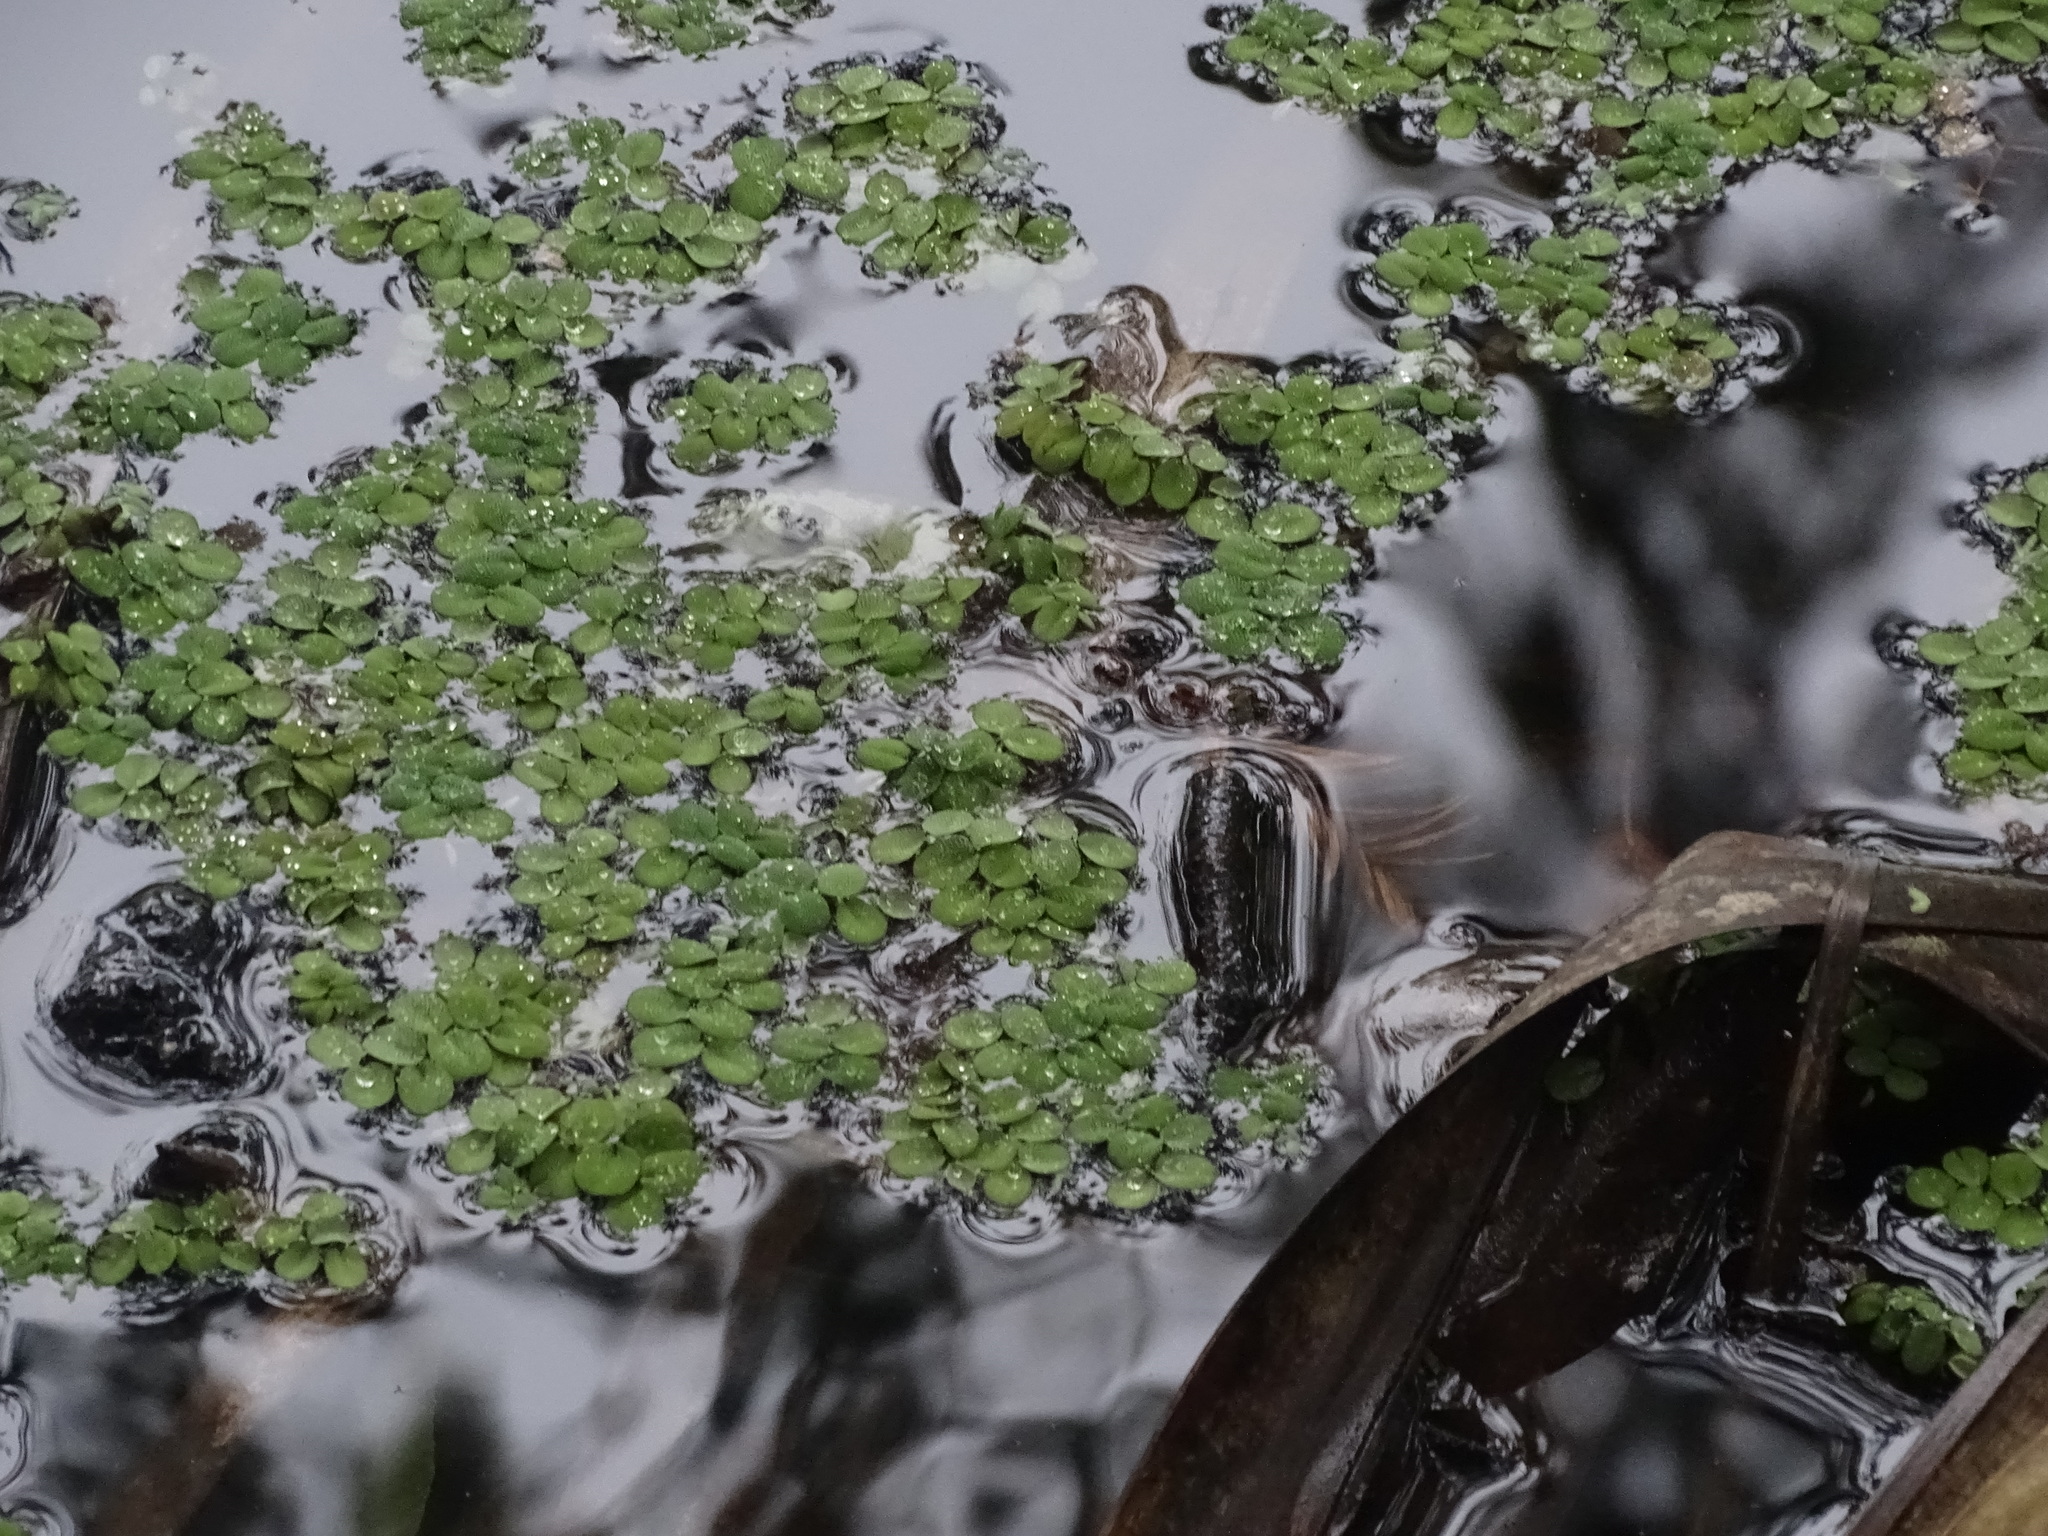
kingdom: Plantae
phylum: Tracheophyta
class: Polypodiopsida
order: Salviniales
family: Salviniaceae
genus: Salvinia
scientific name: Salvinia minima
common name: Water spangles
